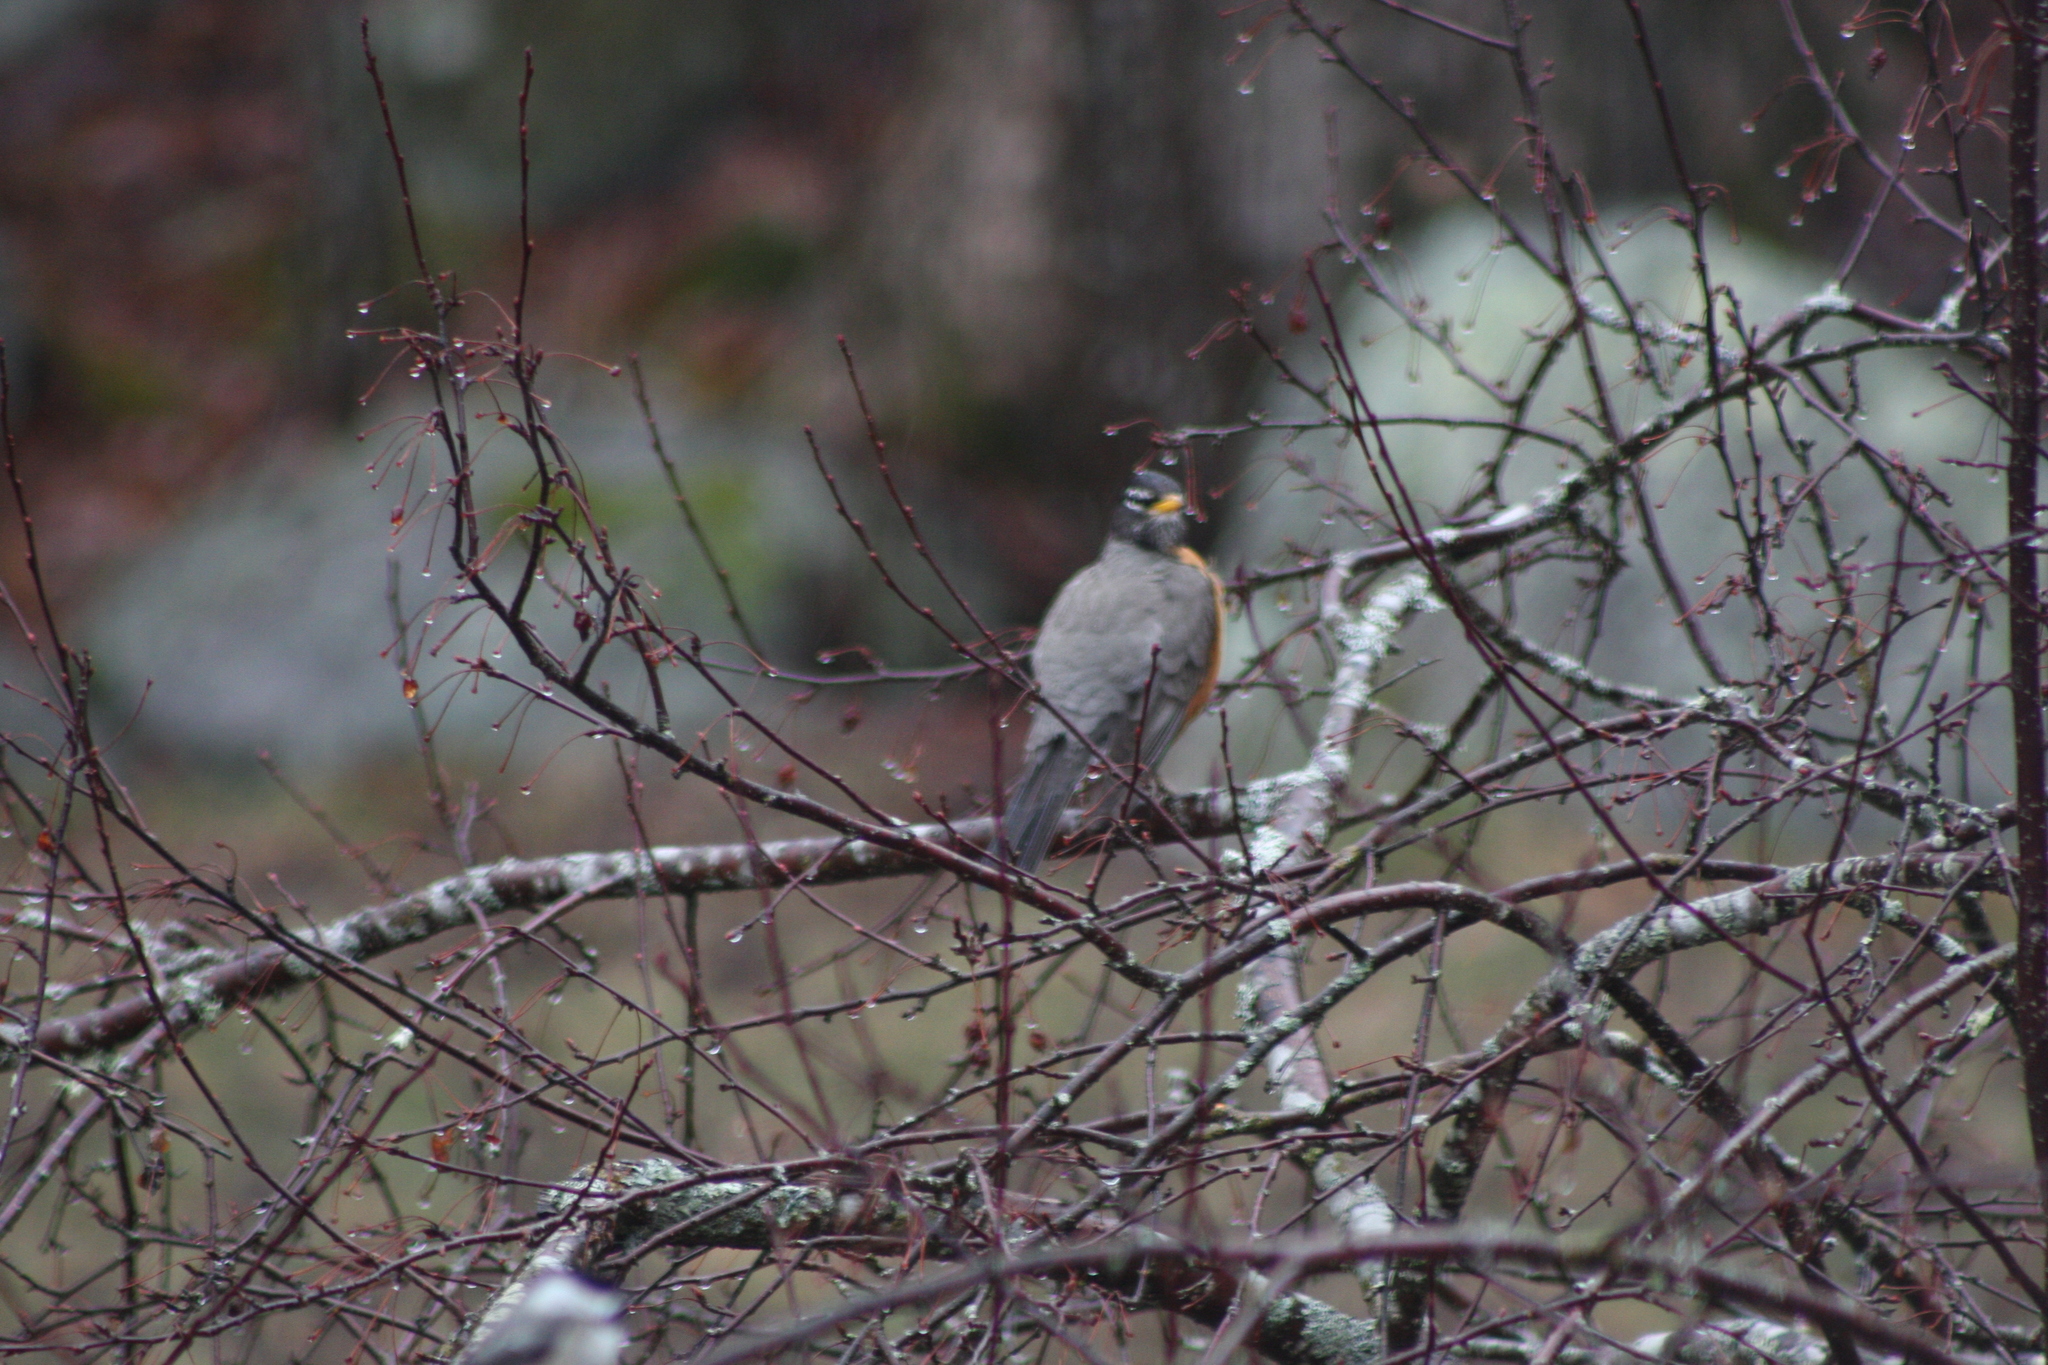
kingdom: Animalia
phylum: Chordata
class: Aves
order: Passeriformes
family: Turdidae
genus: Turdus
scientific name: Turdus migratorius
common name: American robin
